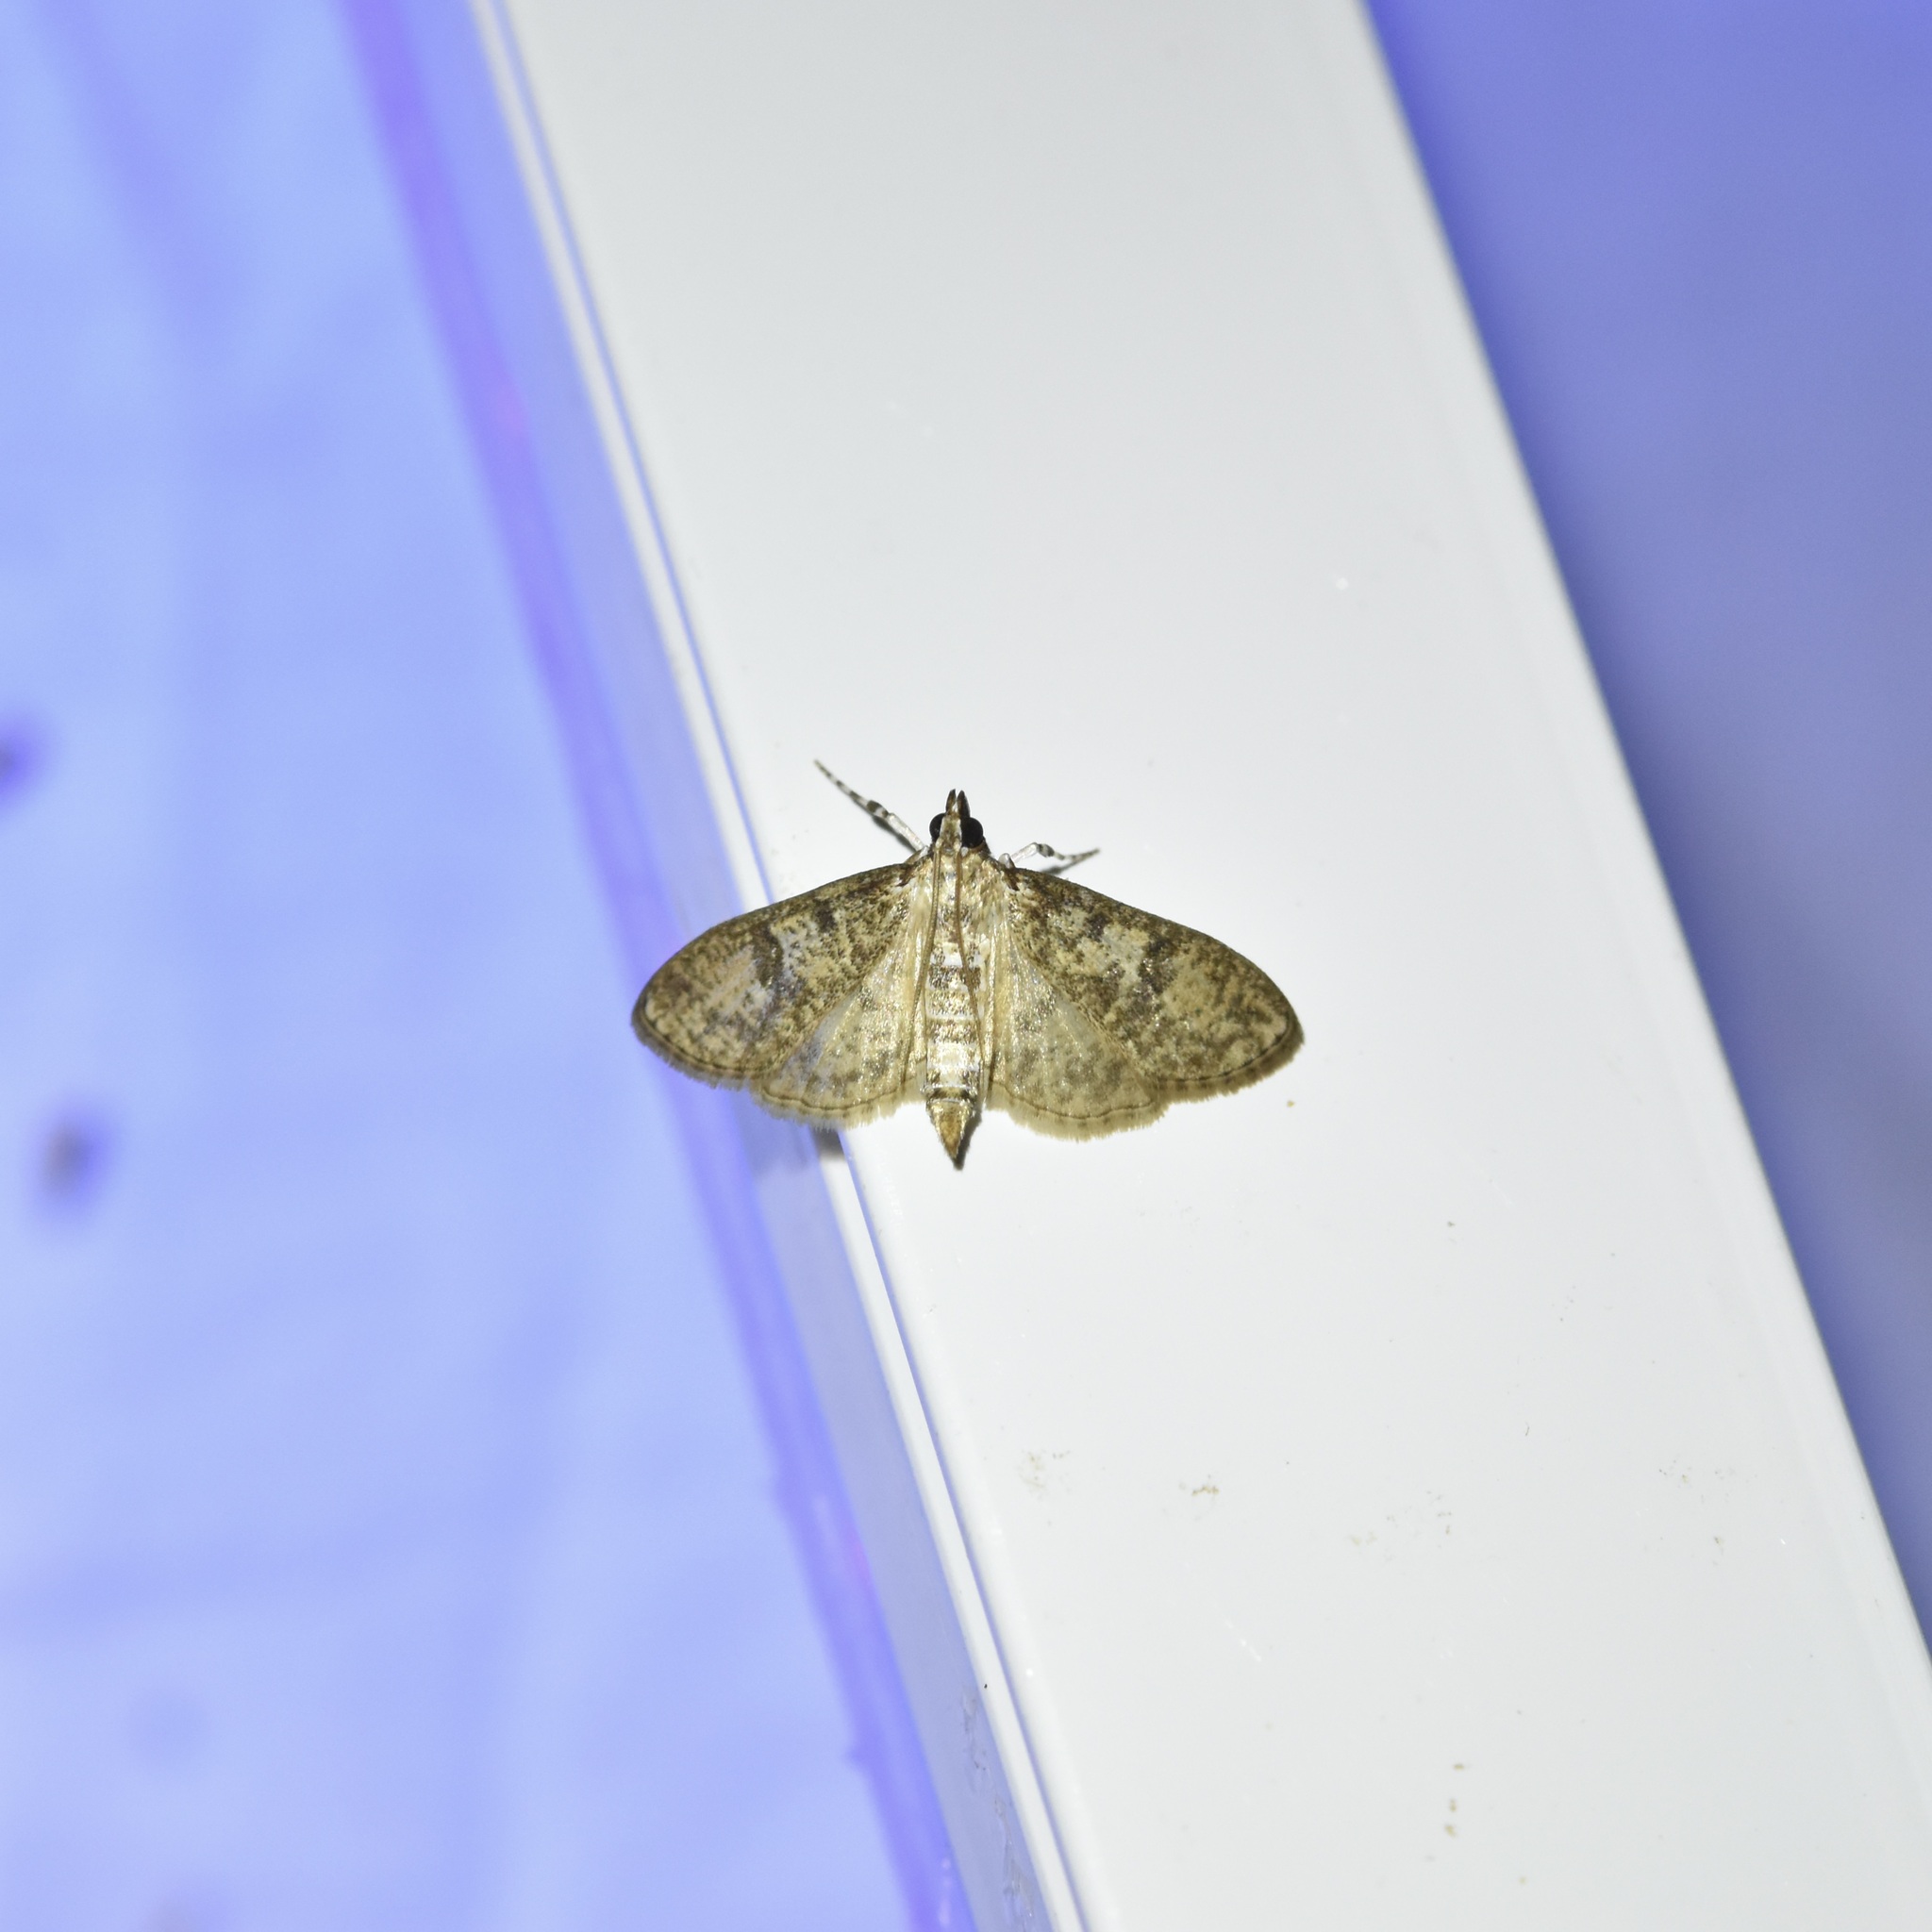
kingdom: Animalia
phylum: Arthropoda
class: Insecta
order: Lepidoptera
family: Crambidae
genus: Palpita
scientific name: Palpita freemanalis
